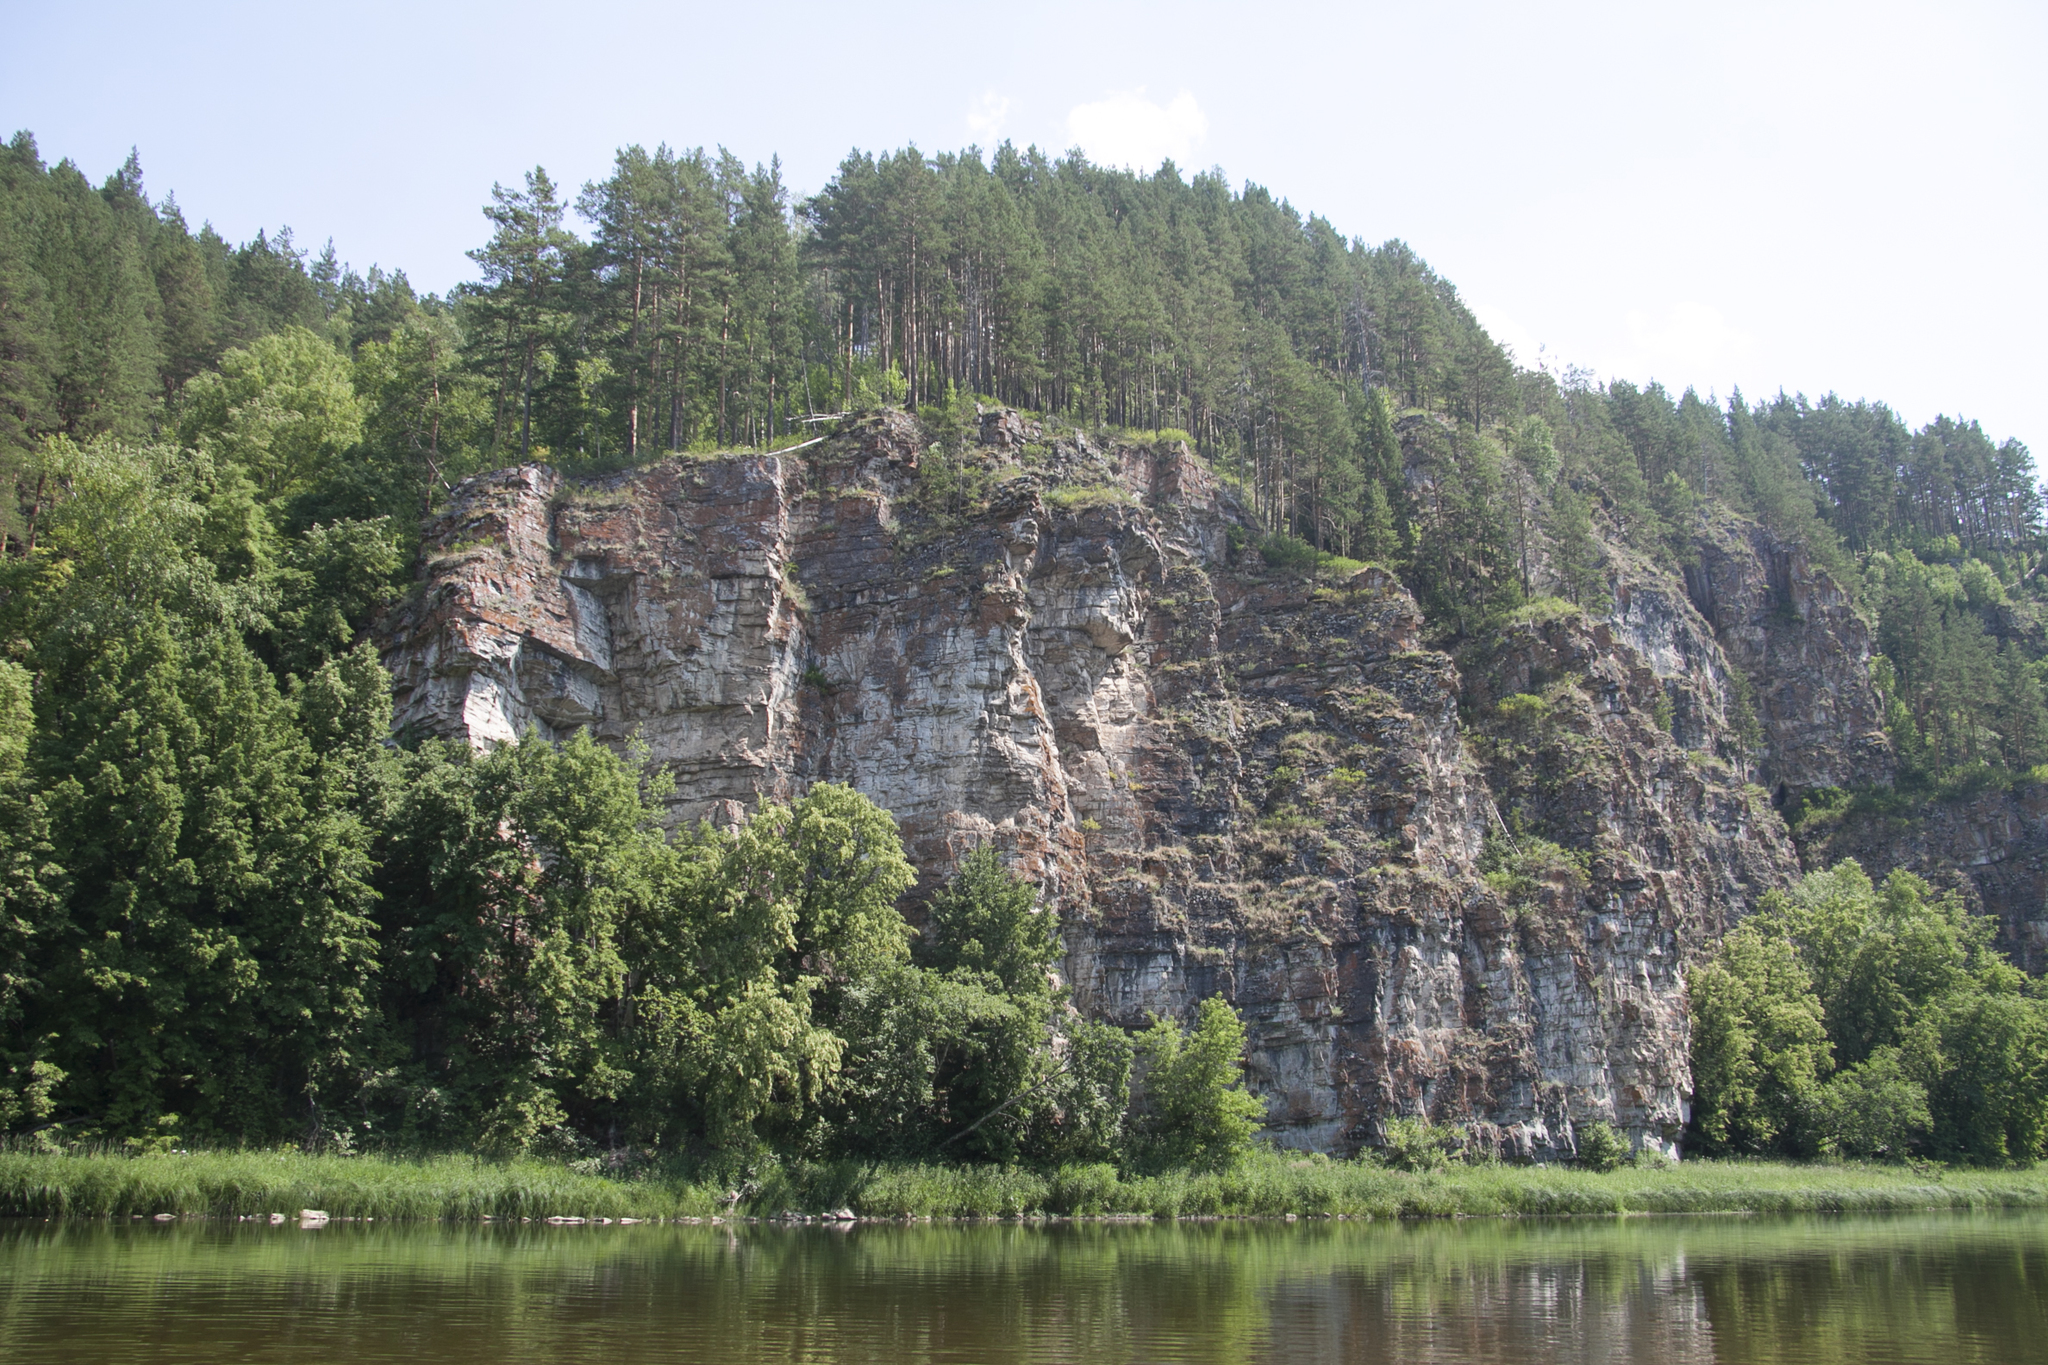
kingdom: Plantae
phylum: Tracheophyta
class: Pinopsida
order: Pinales
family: Pinaceae
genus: Pinus
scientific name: Pinus sylvestris
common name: Scots pine
